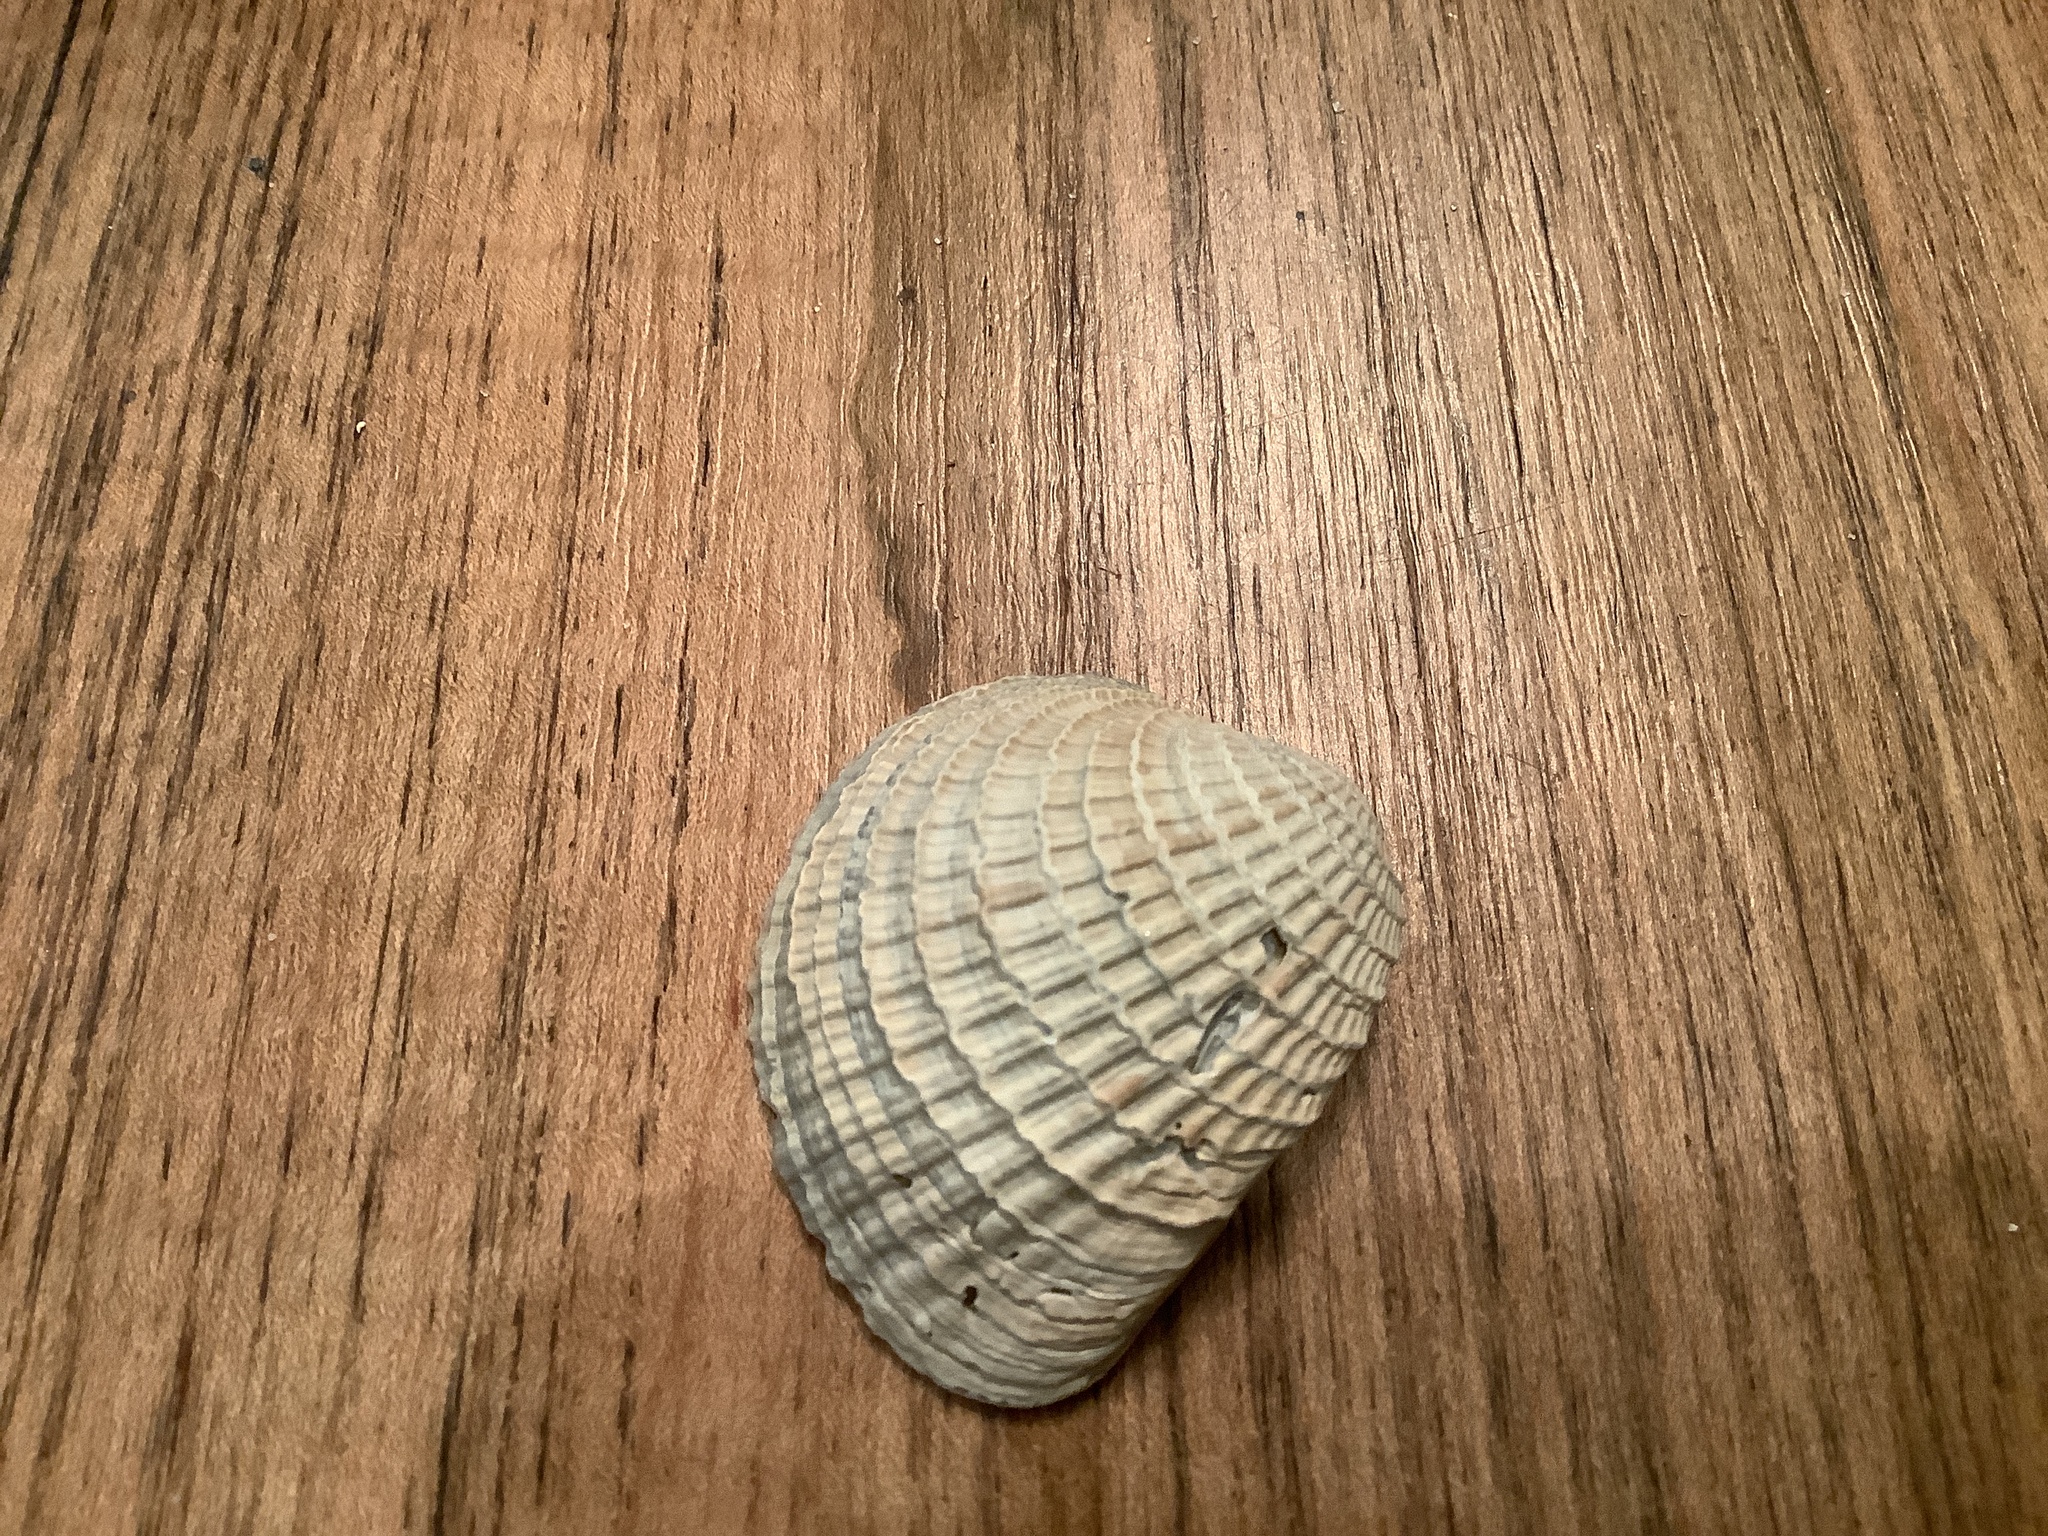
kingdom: Animalia
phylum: Mollusca
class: Bivalvia
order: Venerida
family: Veneridae
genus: Chione
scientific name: Chione elevata
